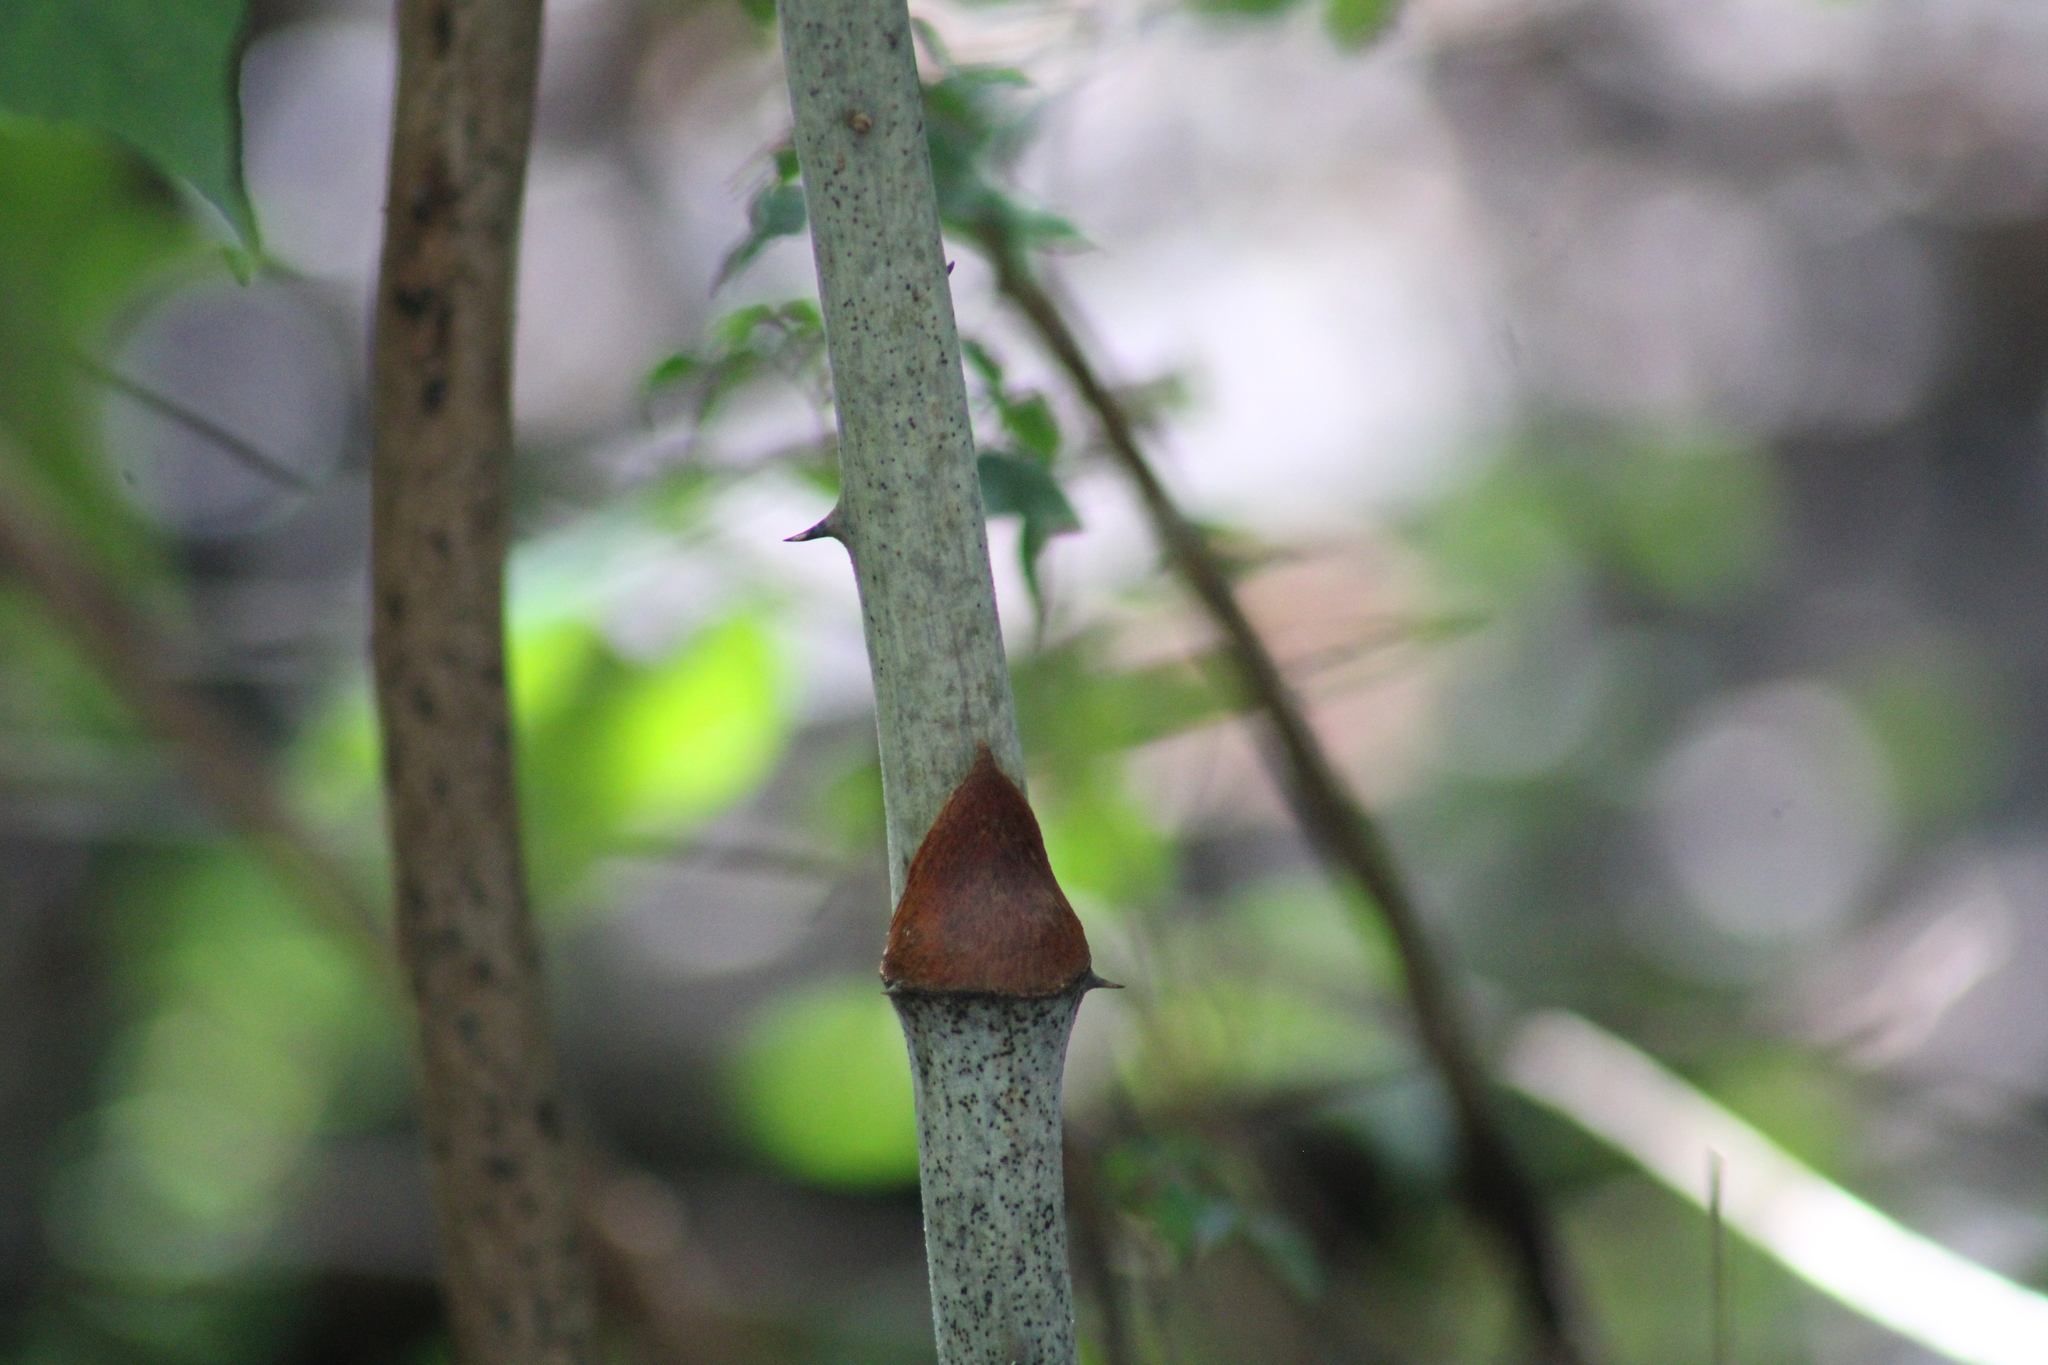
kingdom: Plantae
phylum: Tracheophyta
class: Liliopsida
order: Liliales
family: Smilacaceae
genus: Smilax
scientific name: Smilax maritima
